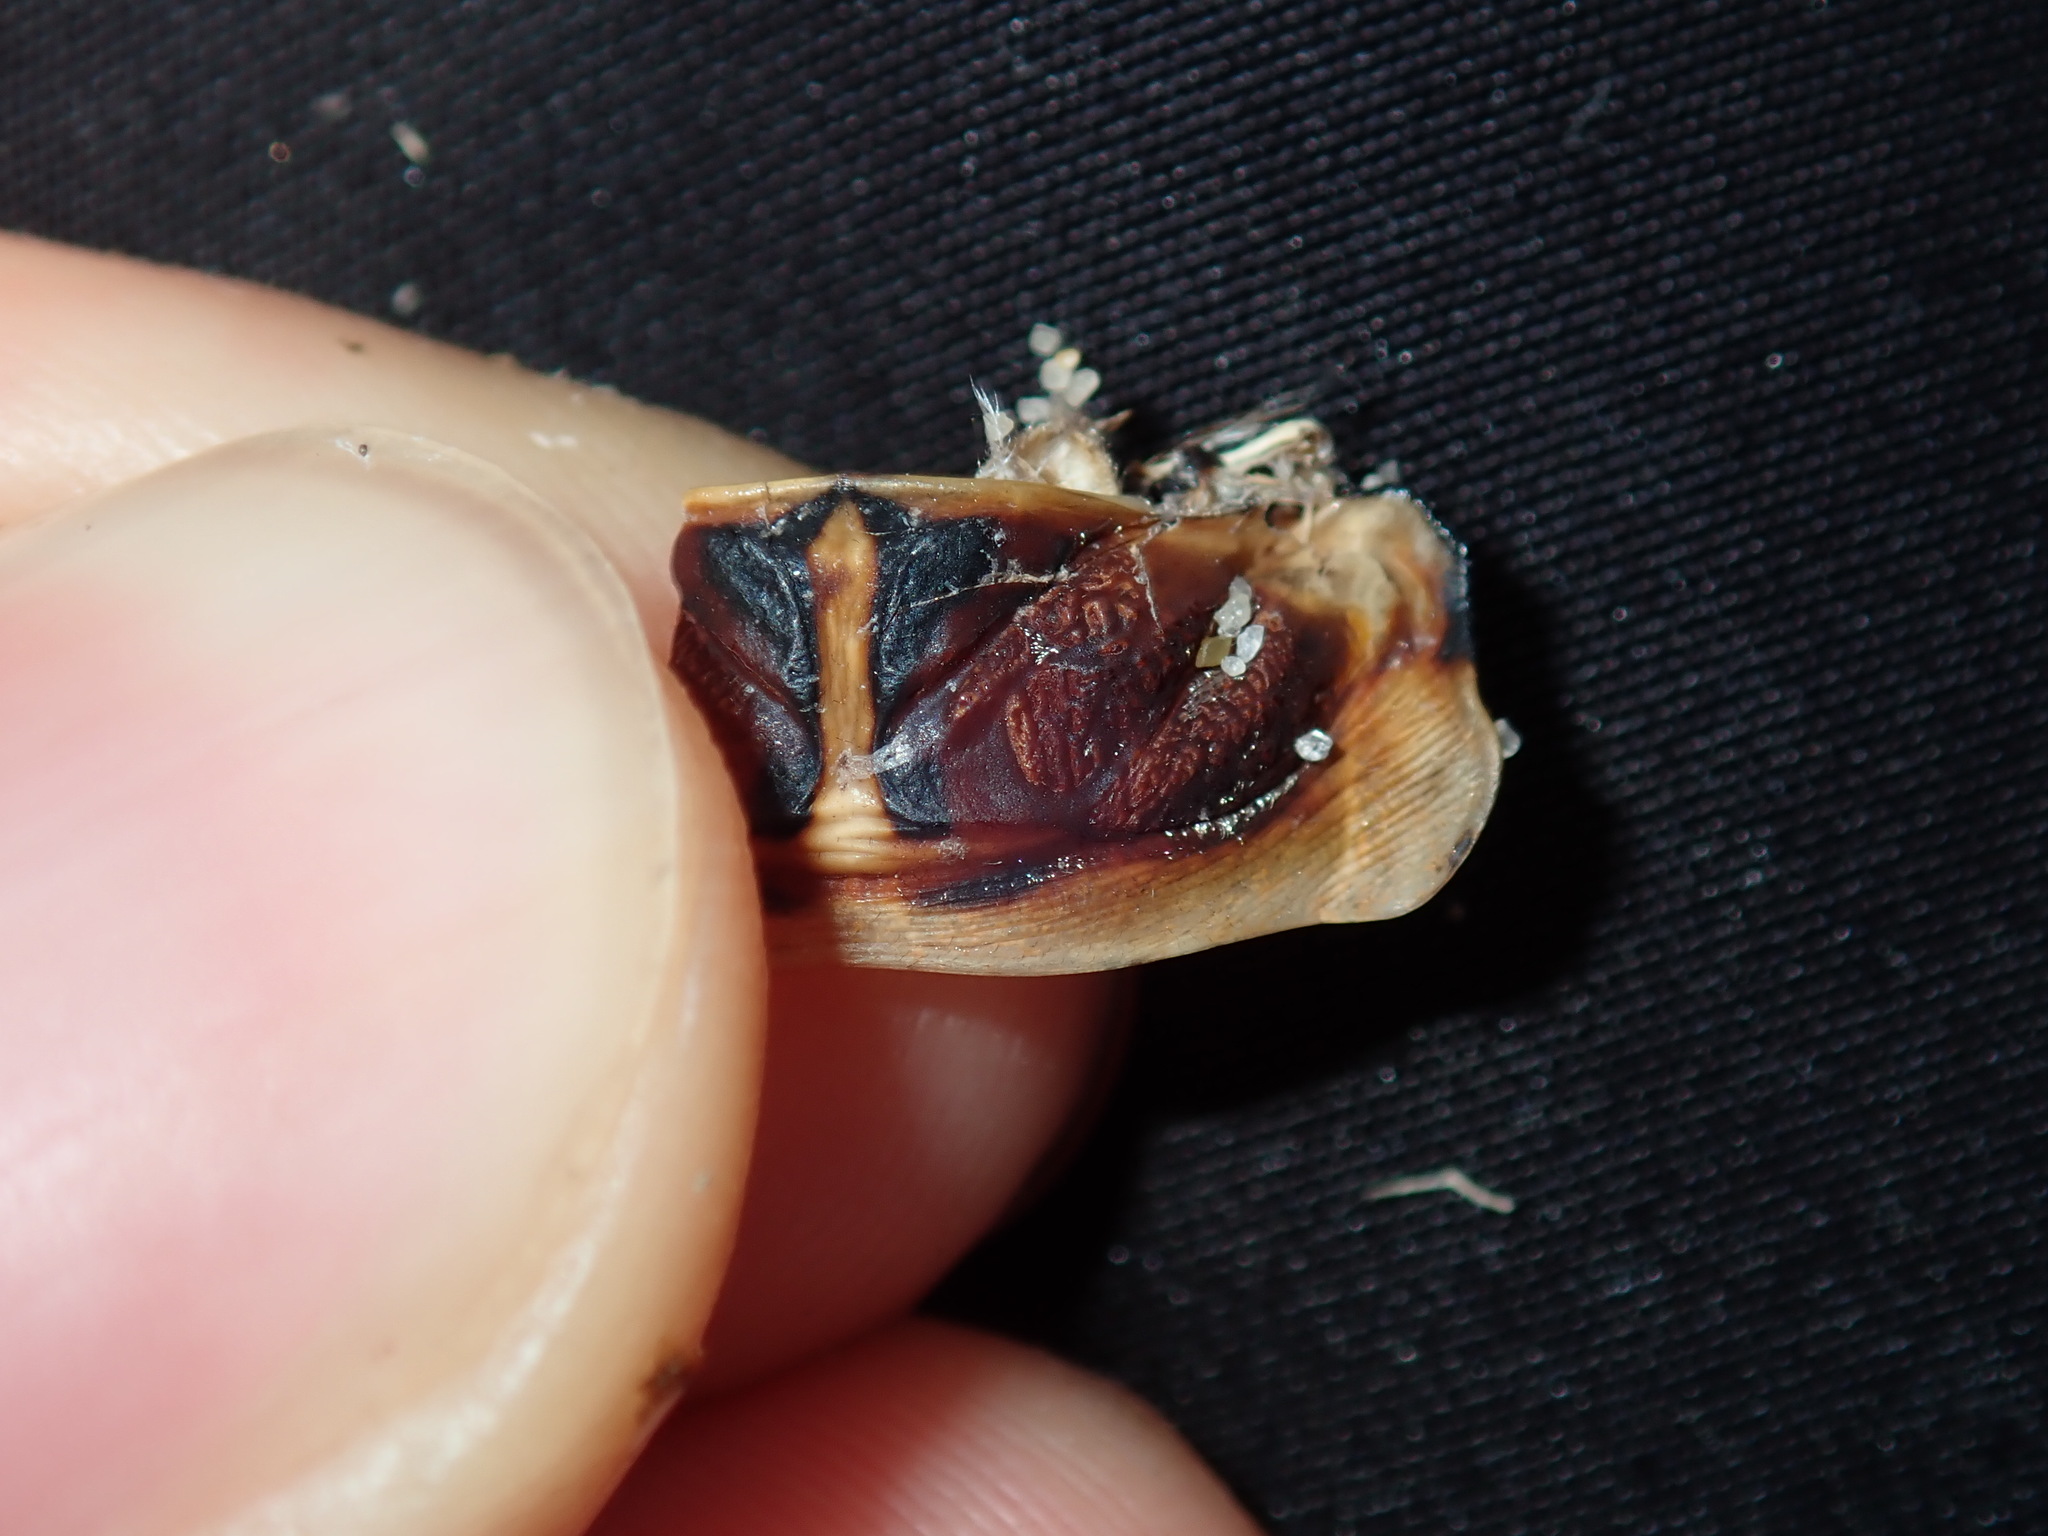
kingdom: Animalia
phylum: Arthropoda
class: Insecta
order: Hemiptera
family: Cicadidae
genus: Thopha
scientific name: Thopha saccata
